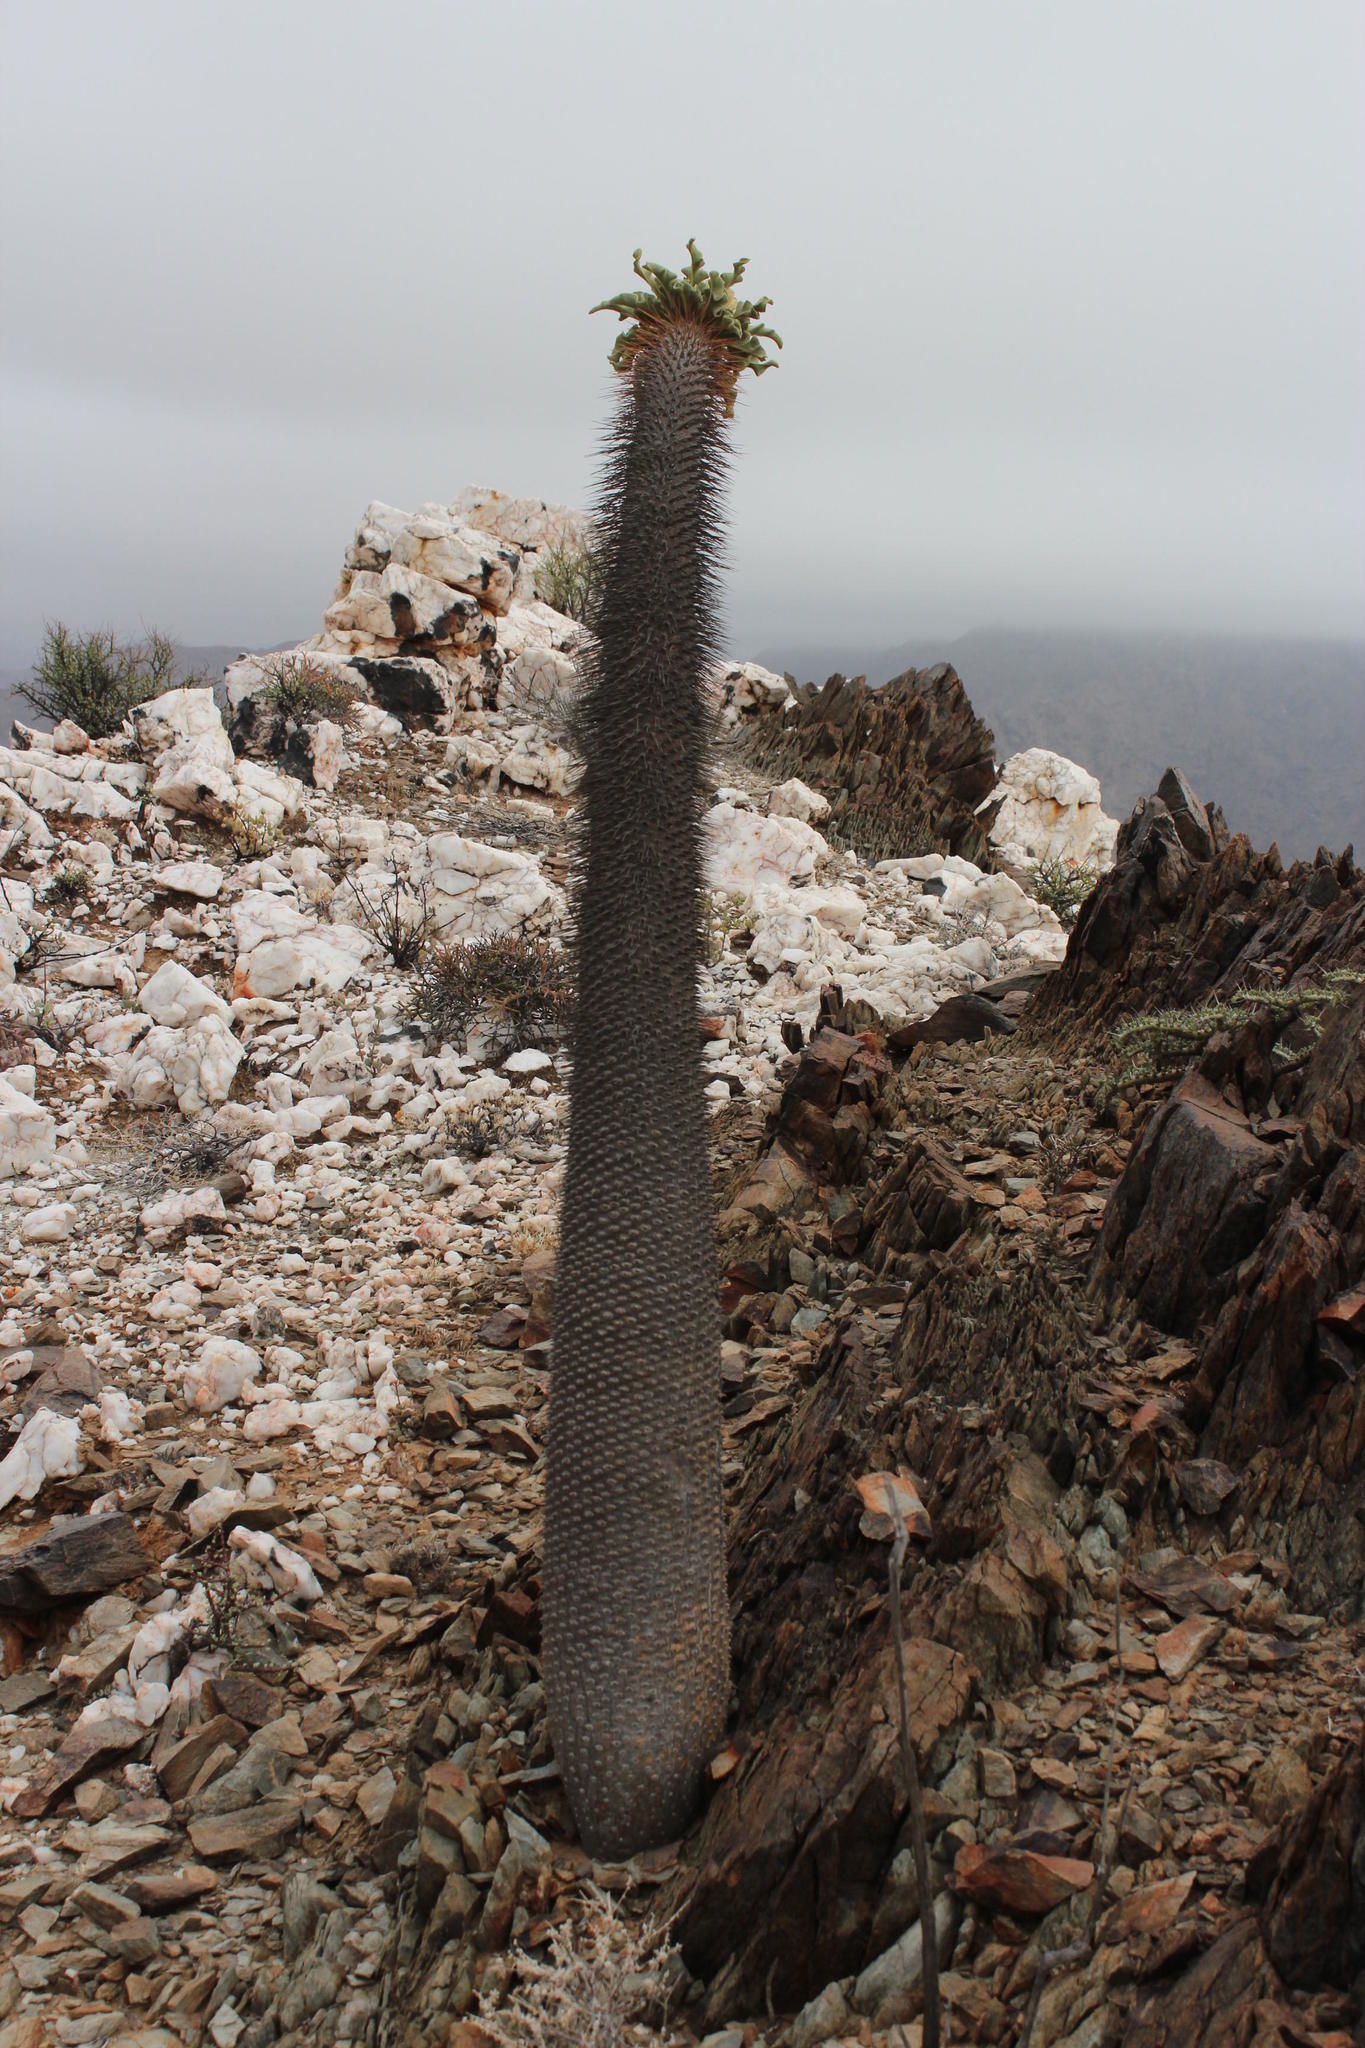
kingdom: Plantae
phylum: Tracheophyta
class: Magnoliopsida
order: Gentianales
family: Apocynaceae
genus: Pachypodium
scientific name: Pachypodium namaquanum
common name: Elephant's trunk
